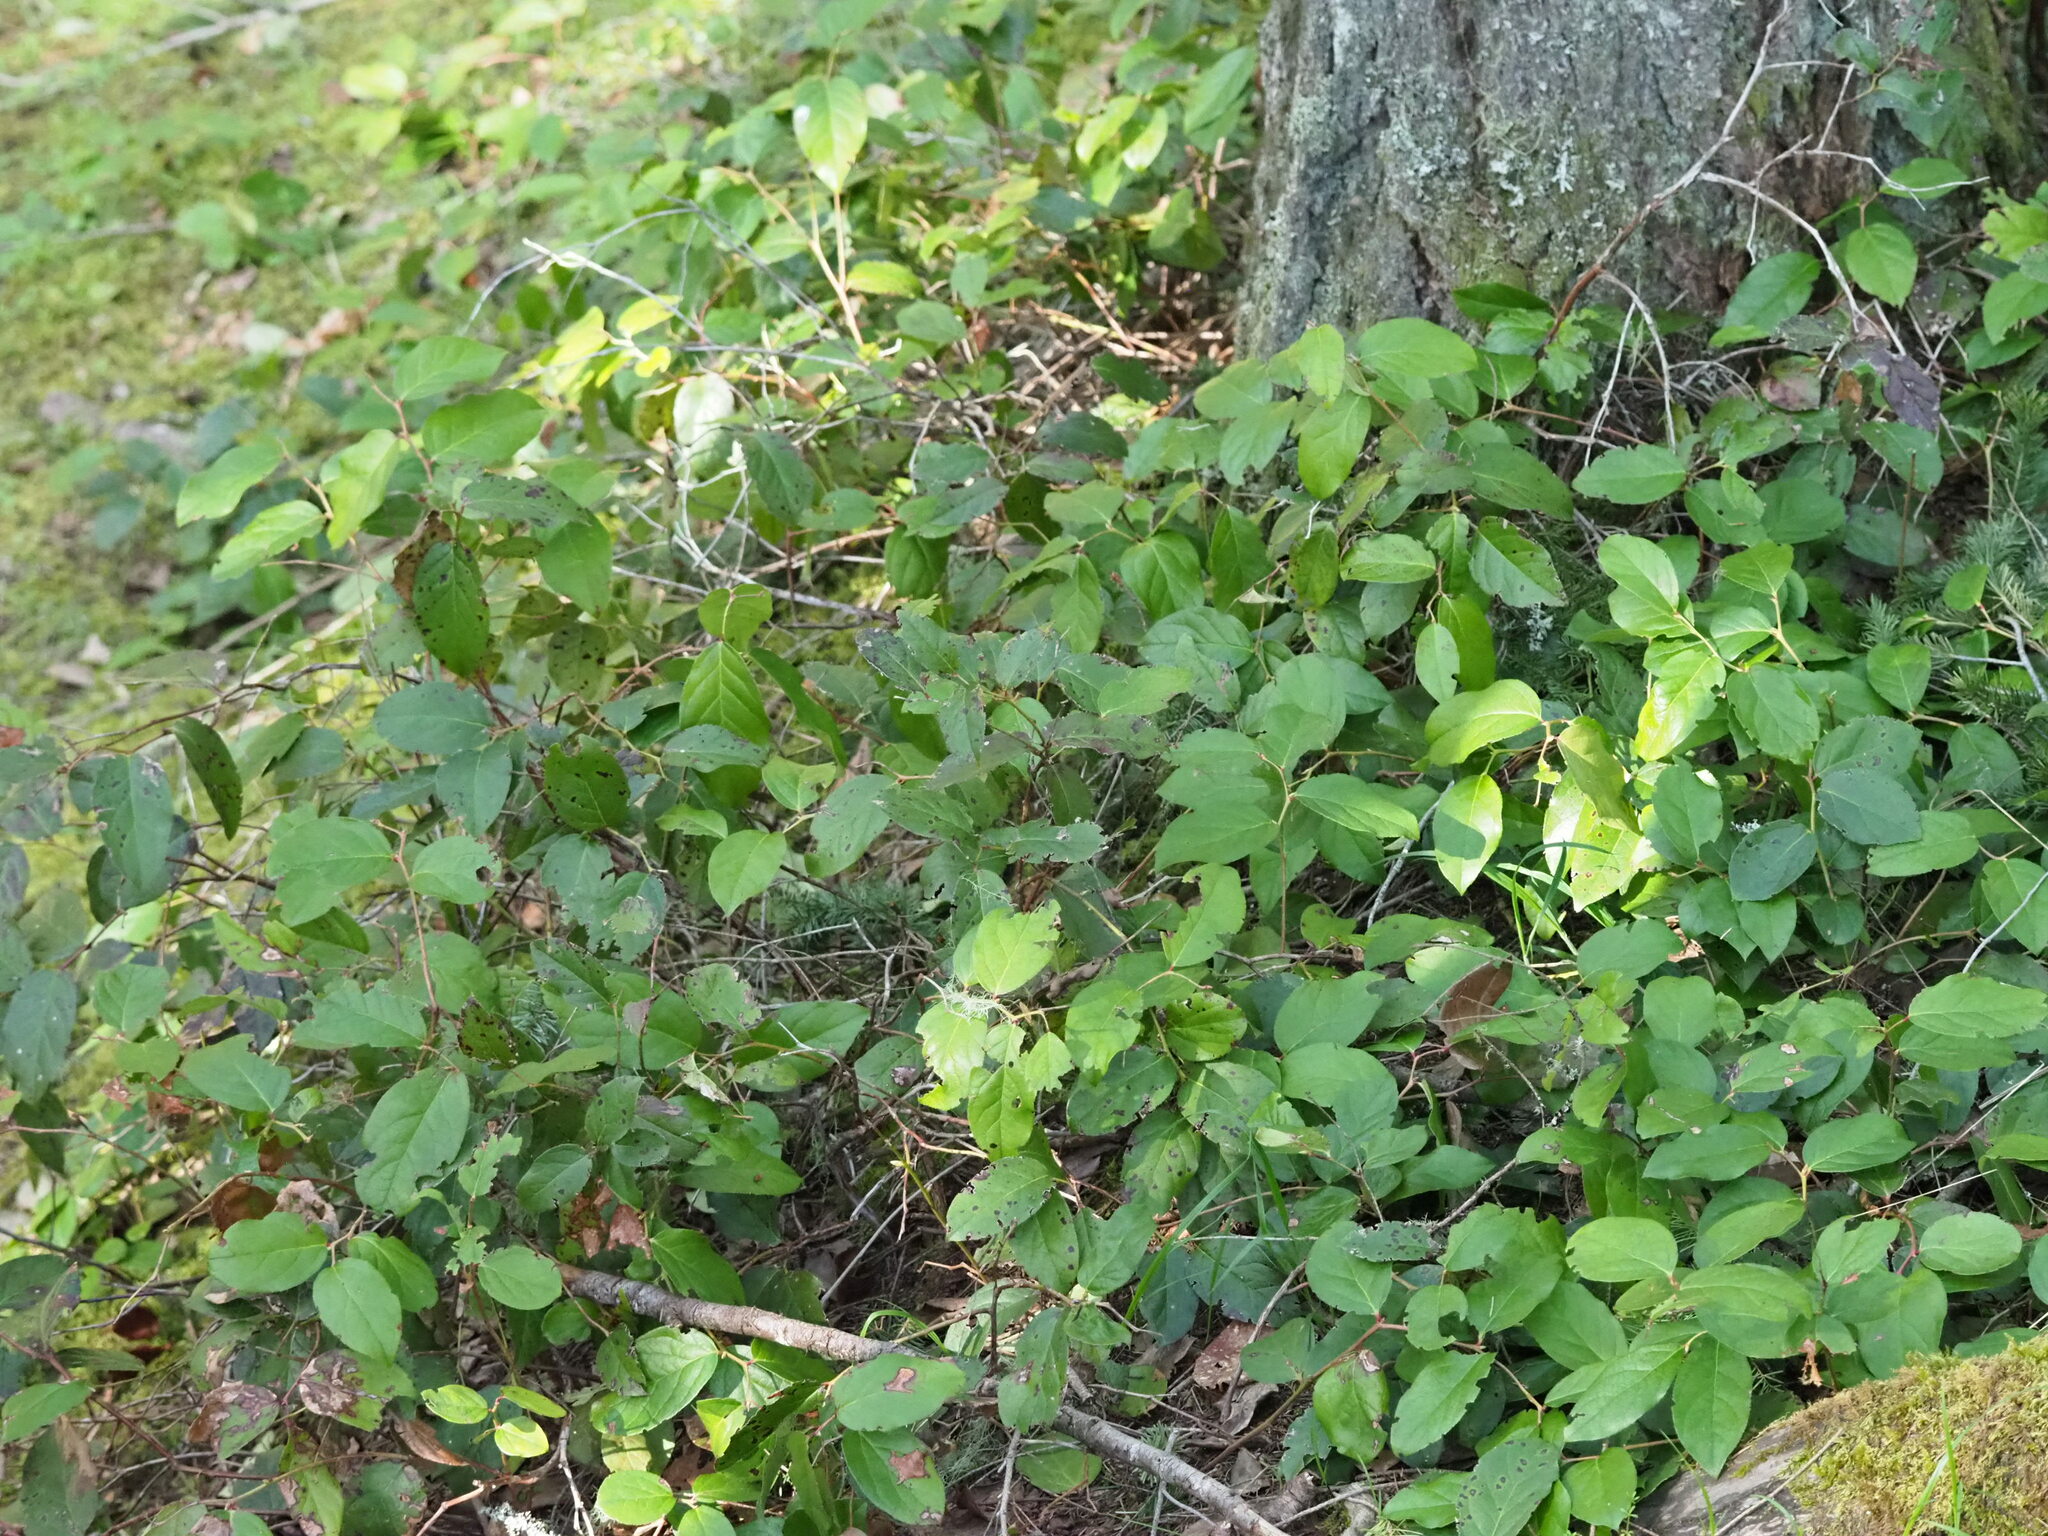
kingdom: Plantae
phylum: Tracheophyta
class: Magnoliopsida
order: Ericales
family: Ericaceae
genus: Gaultheria
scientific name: Gaultheria shallon
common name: Shallon
